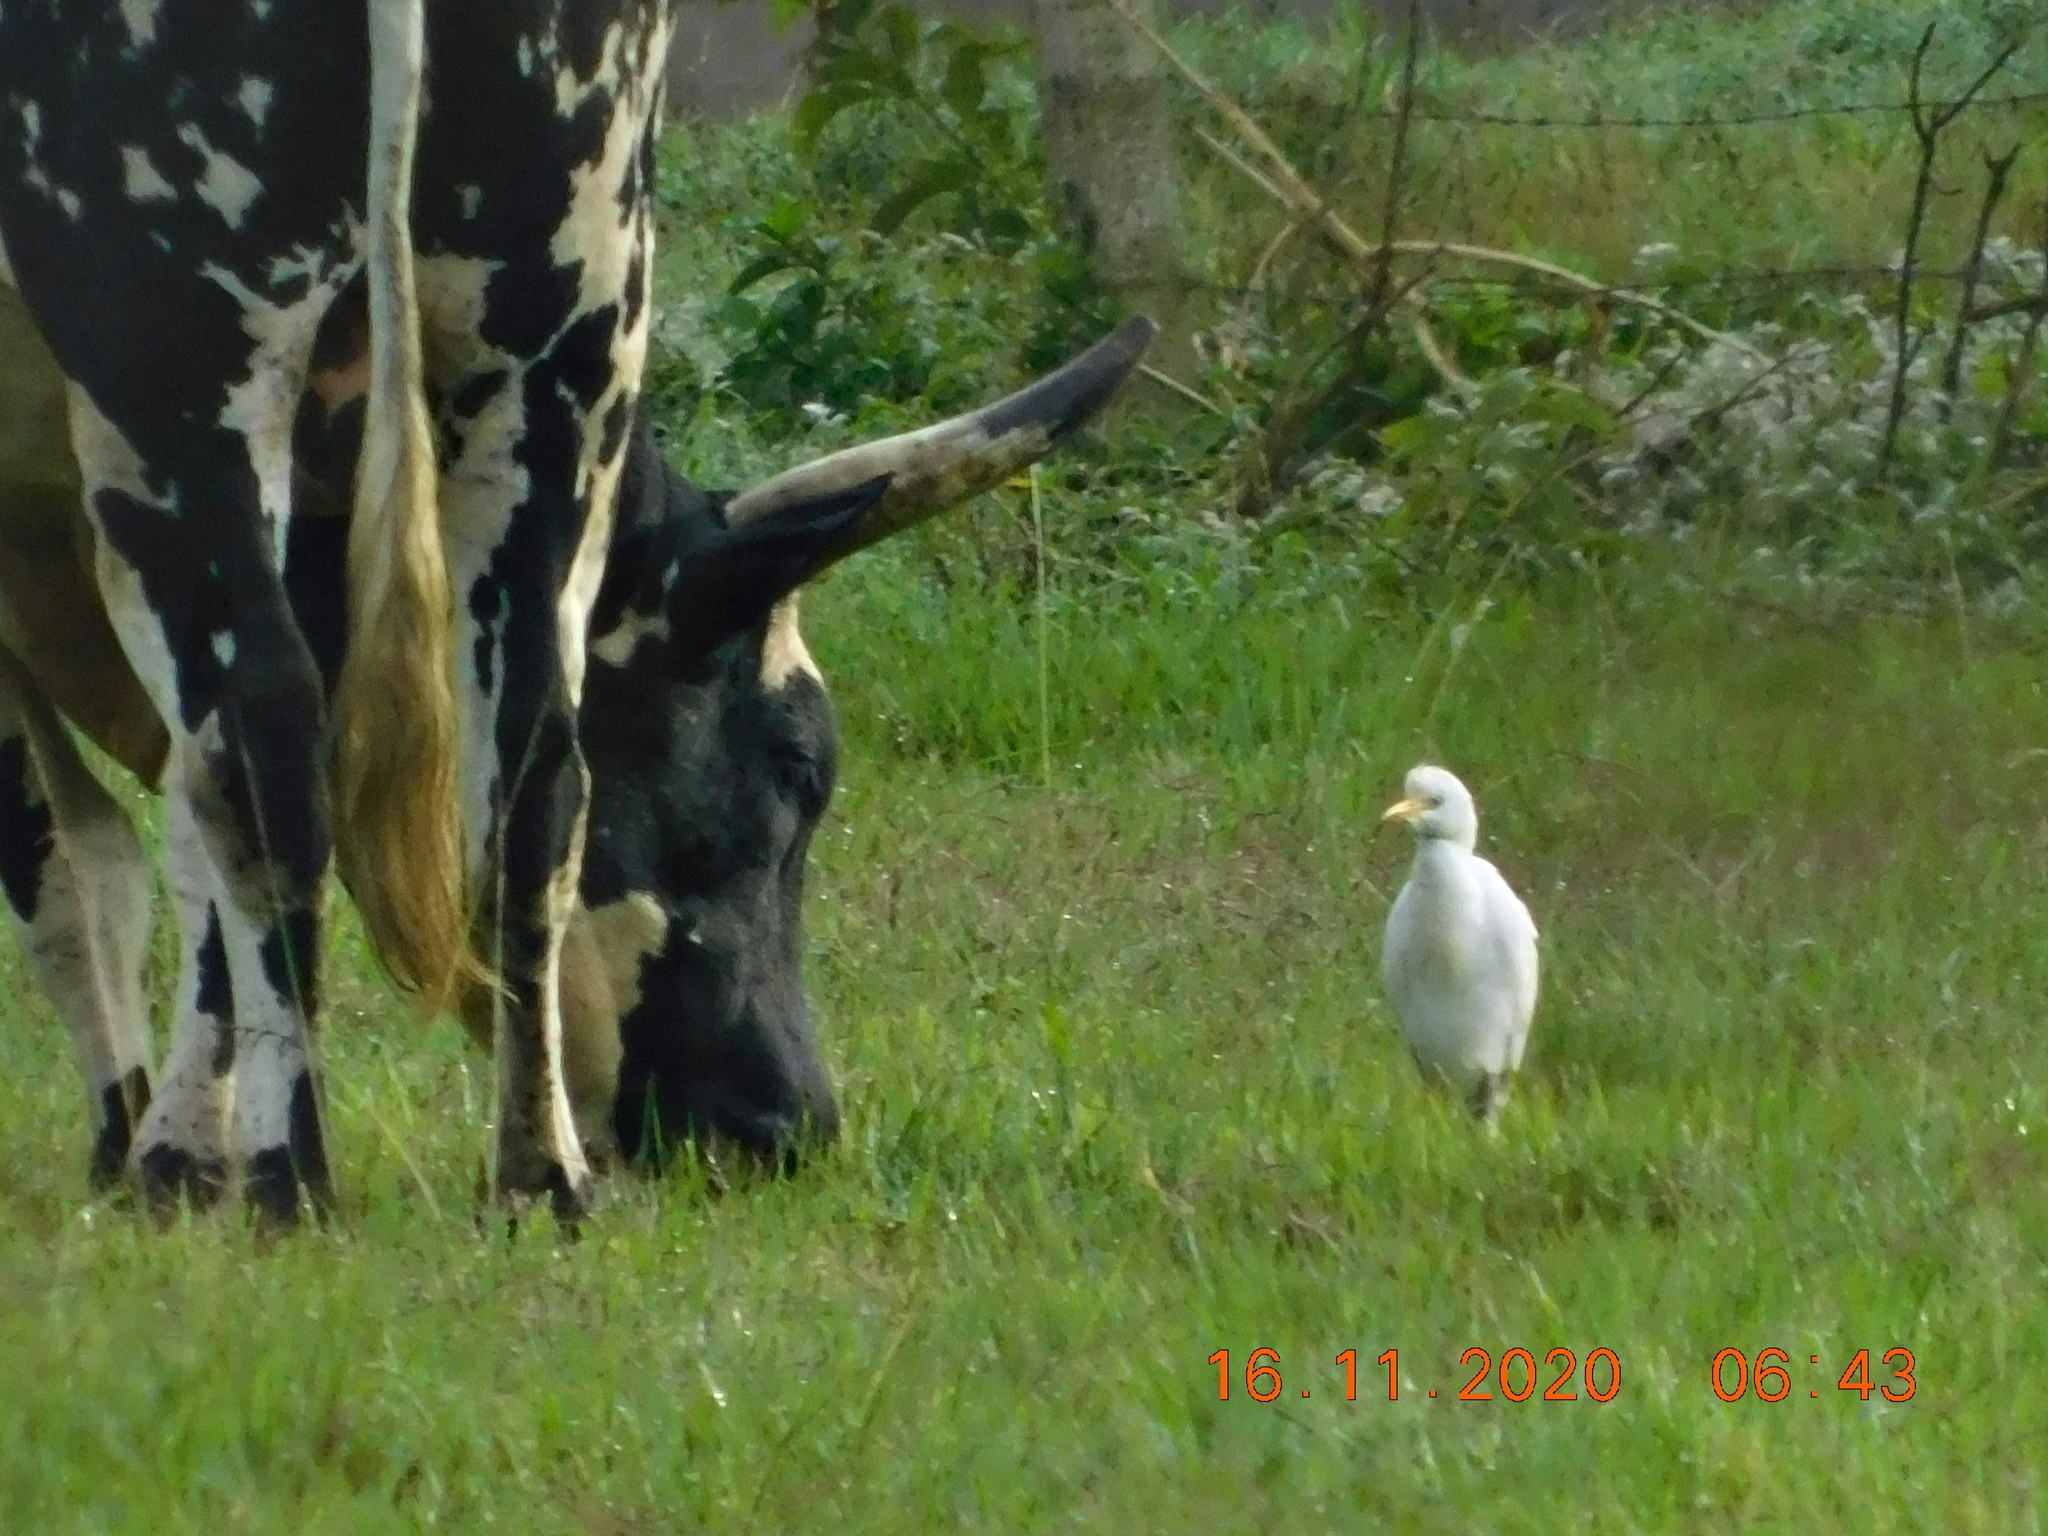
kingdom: Animalia
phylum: Chordata
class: Aves
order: Pelecaniformes
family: Ardeidae
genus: Bubulcus
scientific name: Bubulcus ibis
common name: Cattle egret
